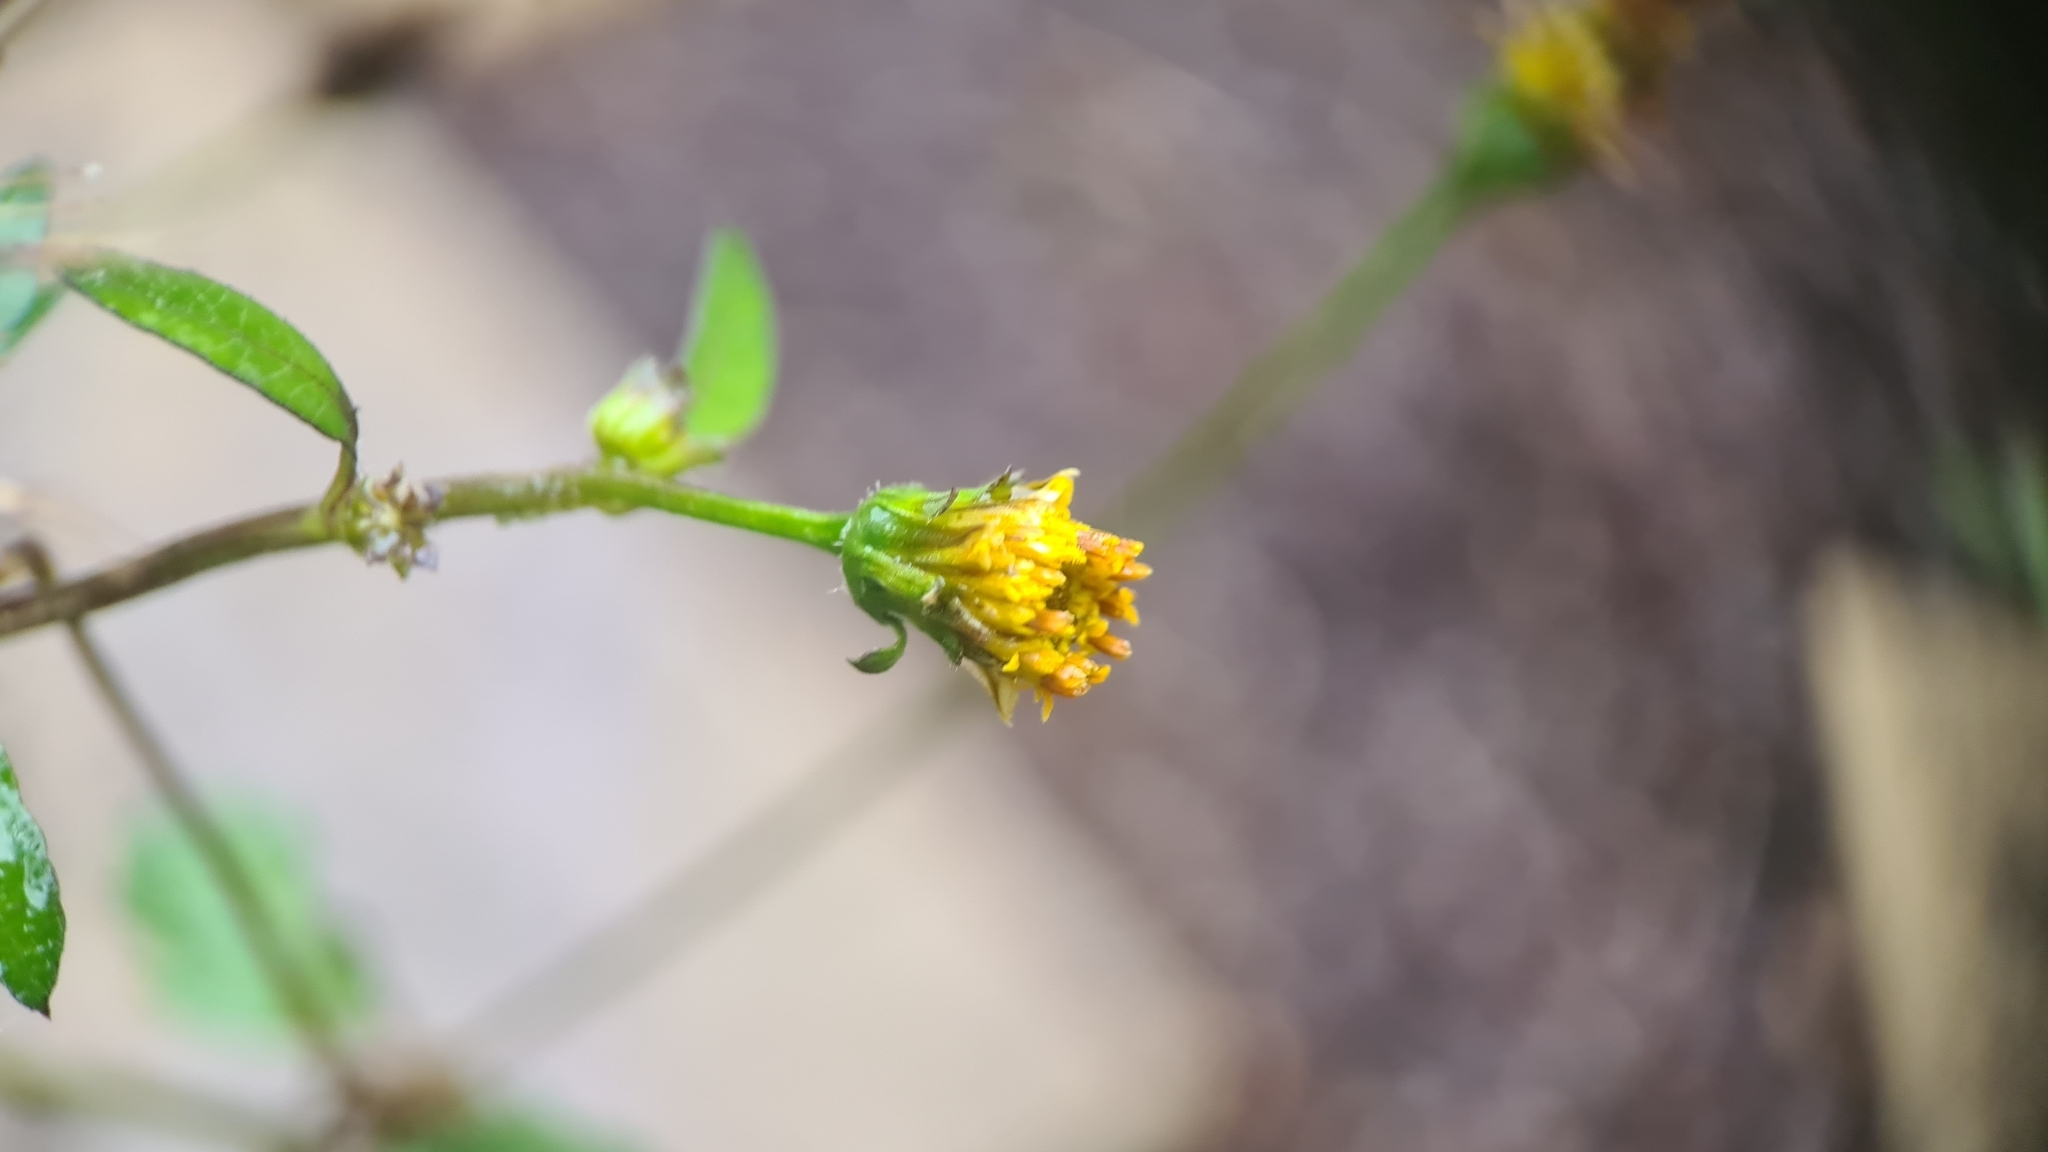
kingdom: Plantae
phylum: Tracheophyta
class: Magnoliopsida
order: Asterales
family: Asteraceae
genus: Bidens
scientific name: Bidens pilosa
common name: Black-jack
